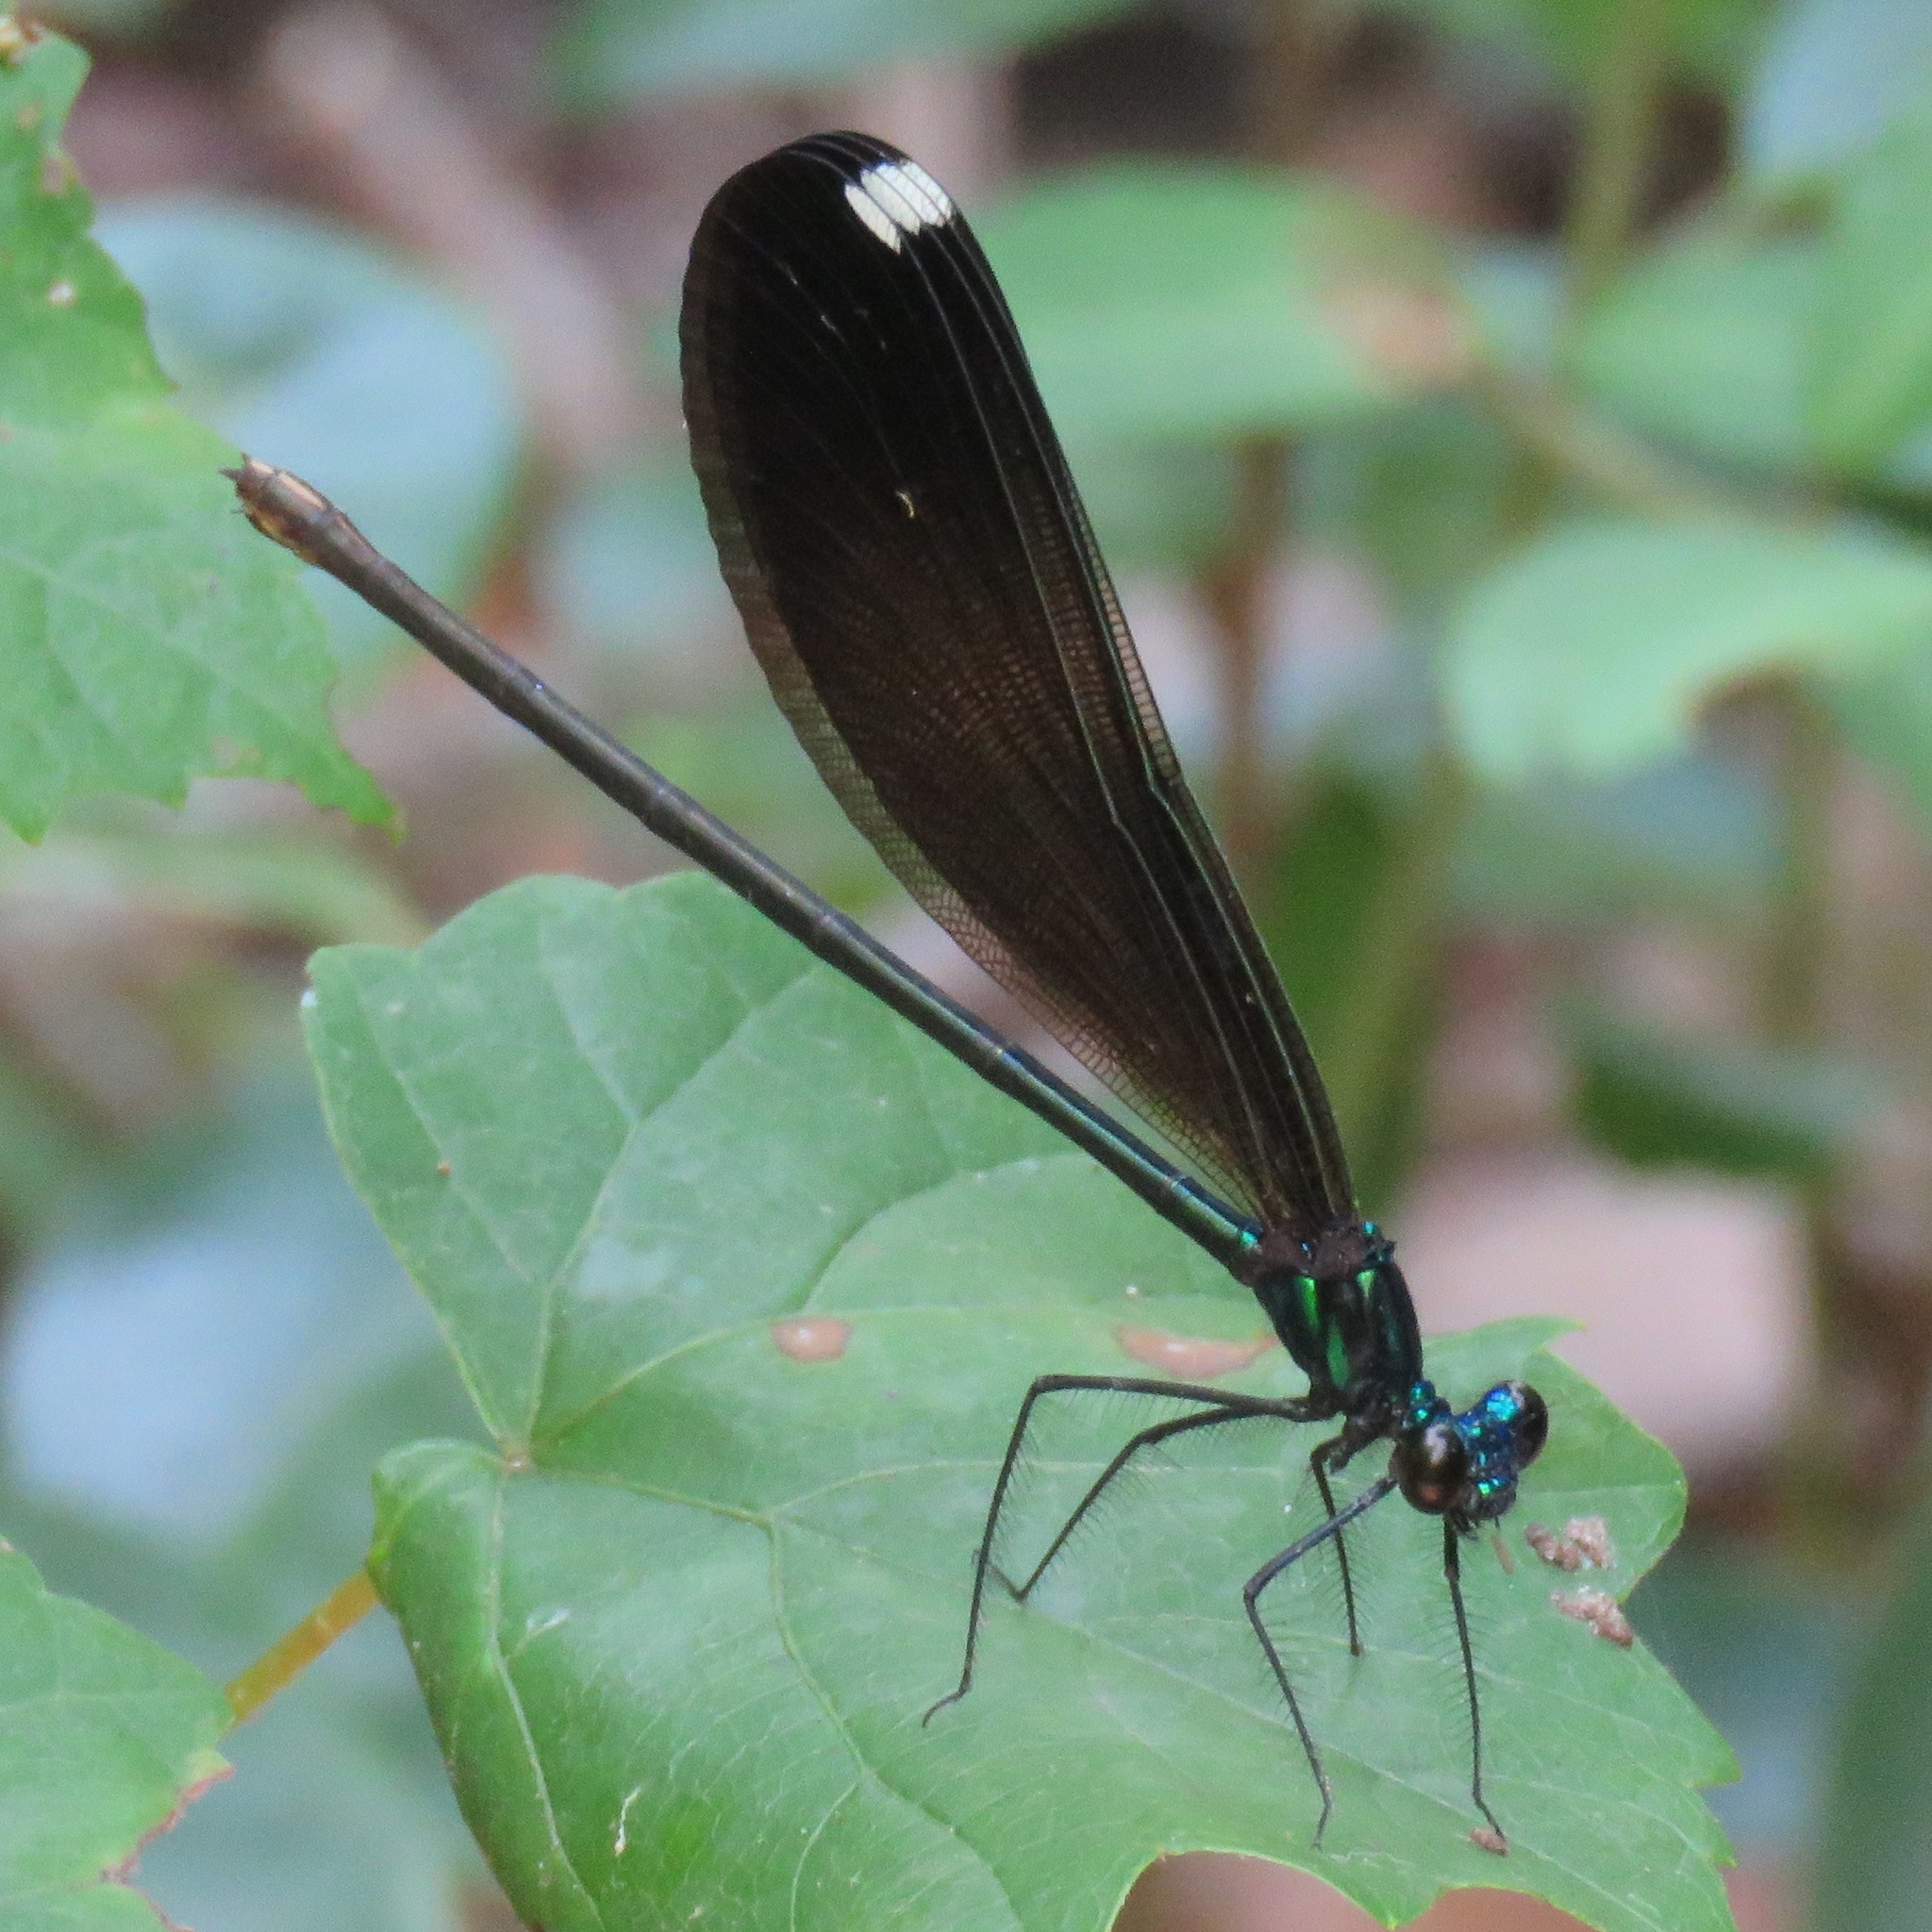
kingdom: Animalia
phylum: Arthropoda
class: Insecta
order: Odonata
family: Calopterygidae
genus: Calopteryx
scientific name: Calopteryx maculata
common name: Ebony jewelwing
